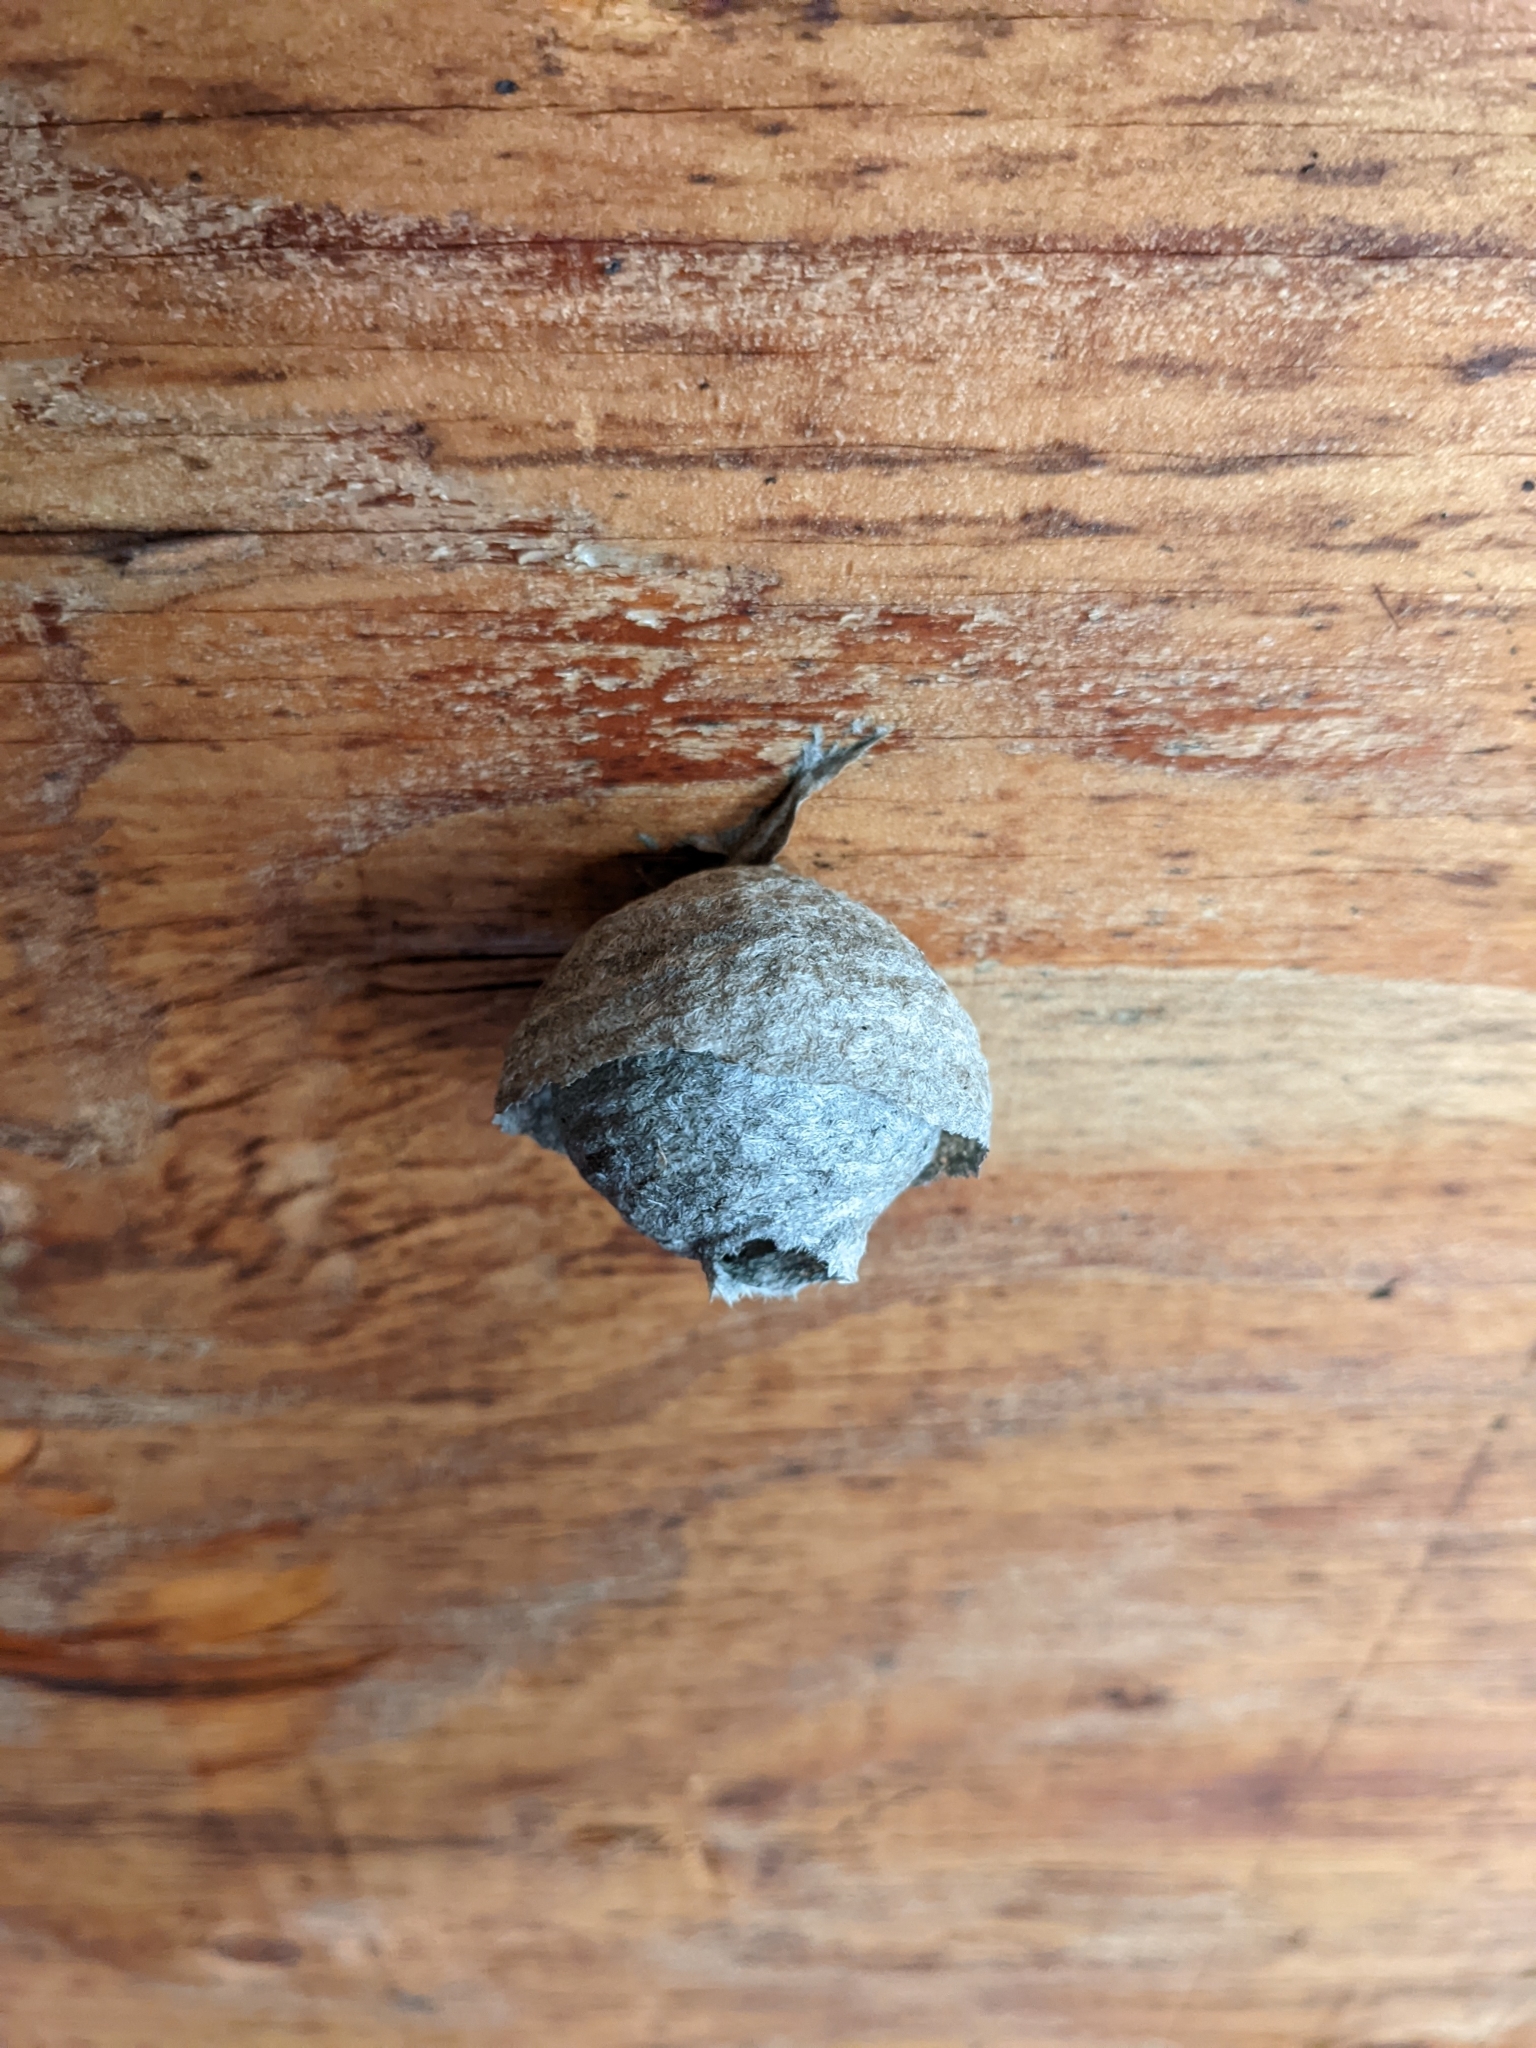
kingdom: Animalia
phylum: Arthropoda
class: Insecta
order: Hymenoptera
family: Vespidae
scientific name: Vespidae
